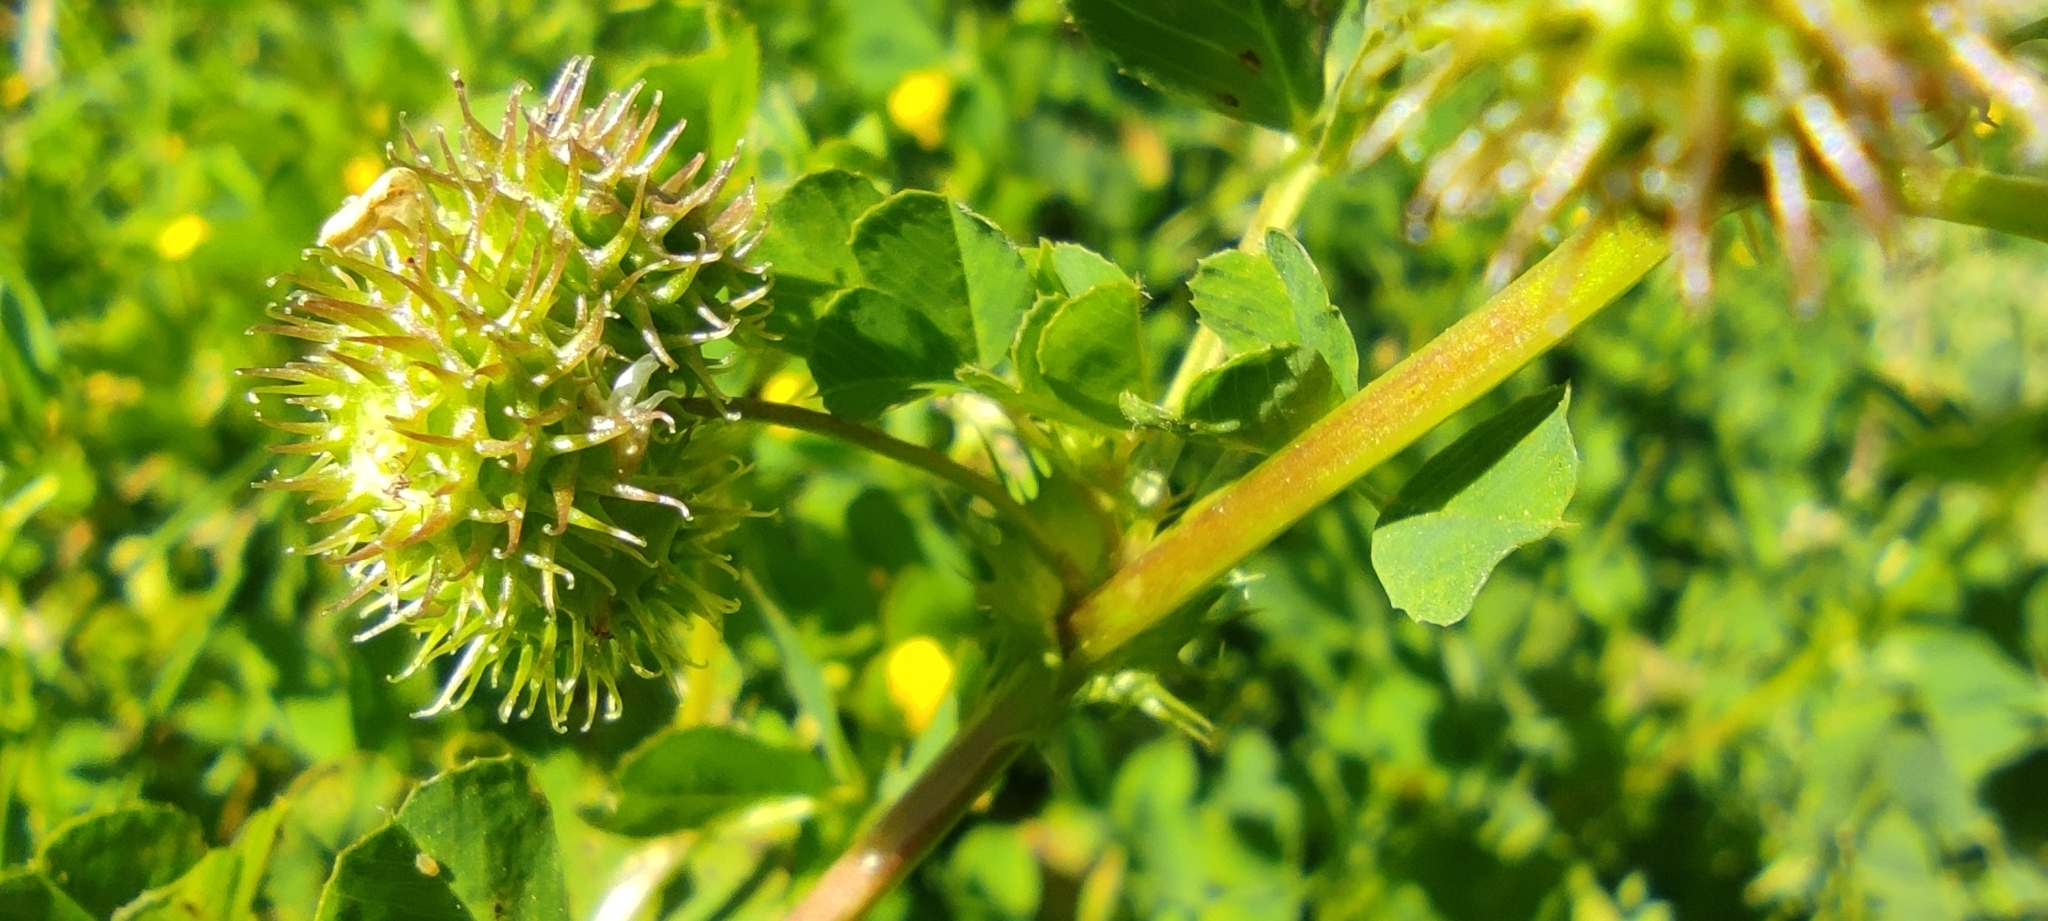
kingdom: Plantae
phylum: Tracheophyta
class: Magnoliopsida
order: Fabales
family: Fabaceae
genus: Medicago
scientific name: Medicago polymorpha
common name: Burclover
